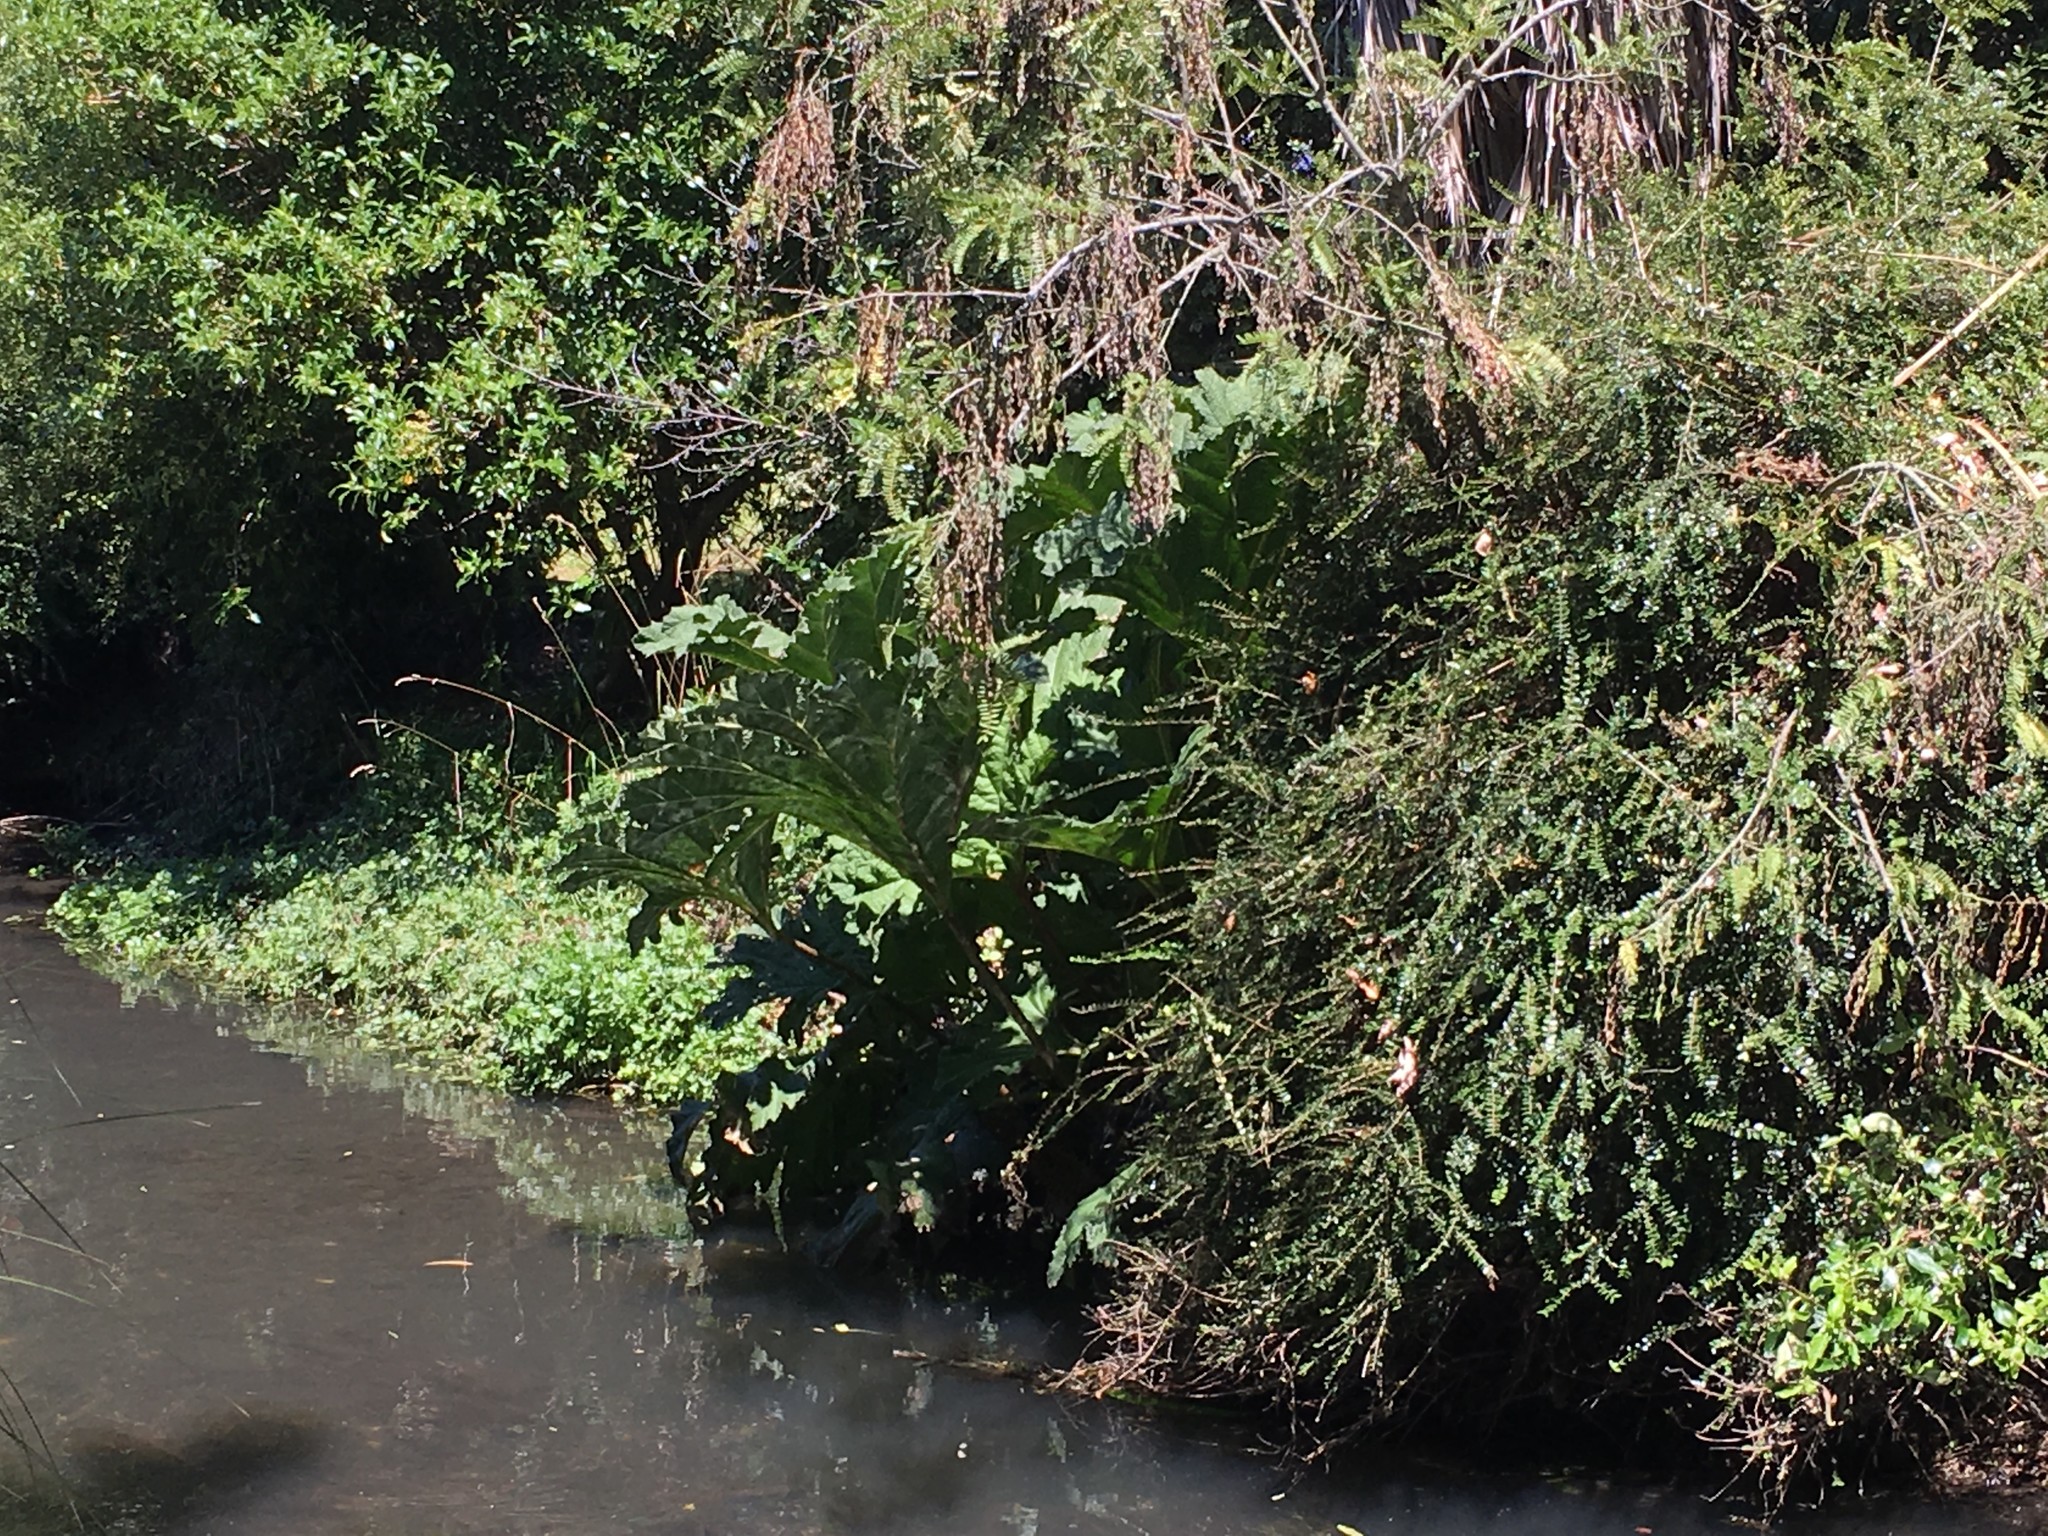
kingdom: Plantae
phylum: Tracheophyta
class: Magnoliopsida
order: Gunnerales
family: Gunneraceae
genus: Gunnera
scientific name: Gunnera tinctoria
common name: Giant-rhubarb
